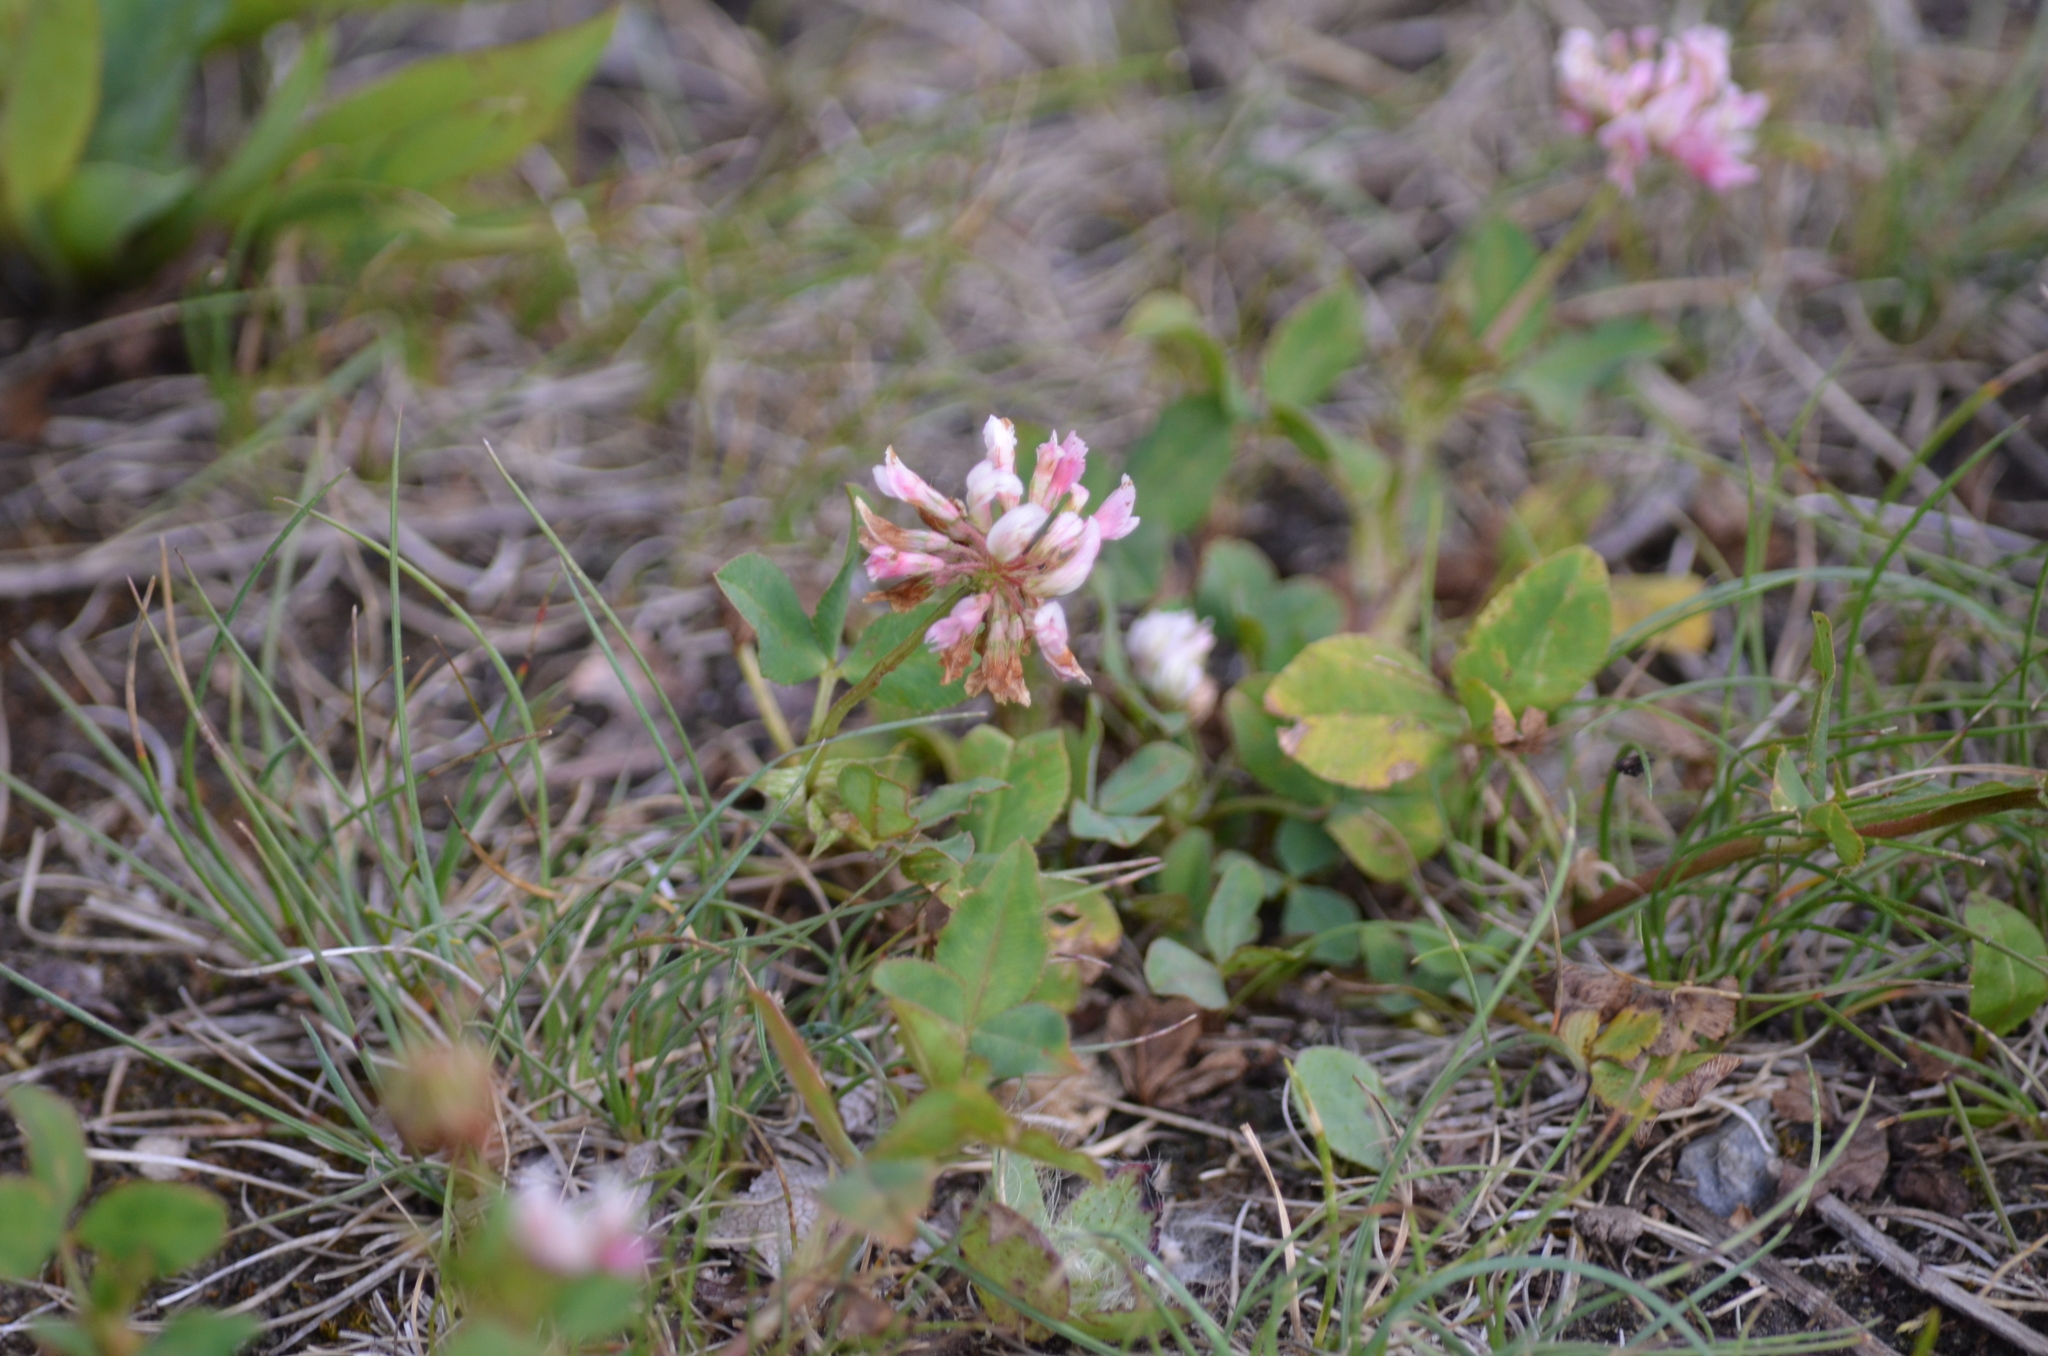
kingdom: Plantae
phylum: Tracheophyta
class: Magnoliopsida
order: Fabales
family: Fabaceae
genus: Trifolium
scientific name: Trifolium hybridum
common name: Alsike clover
